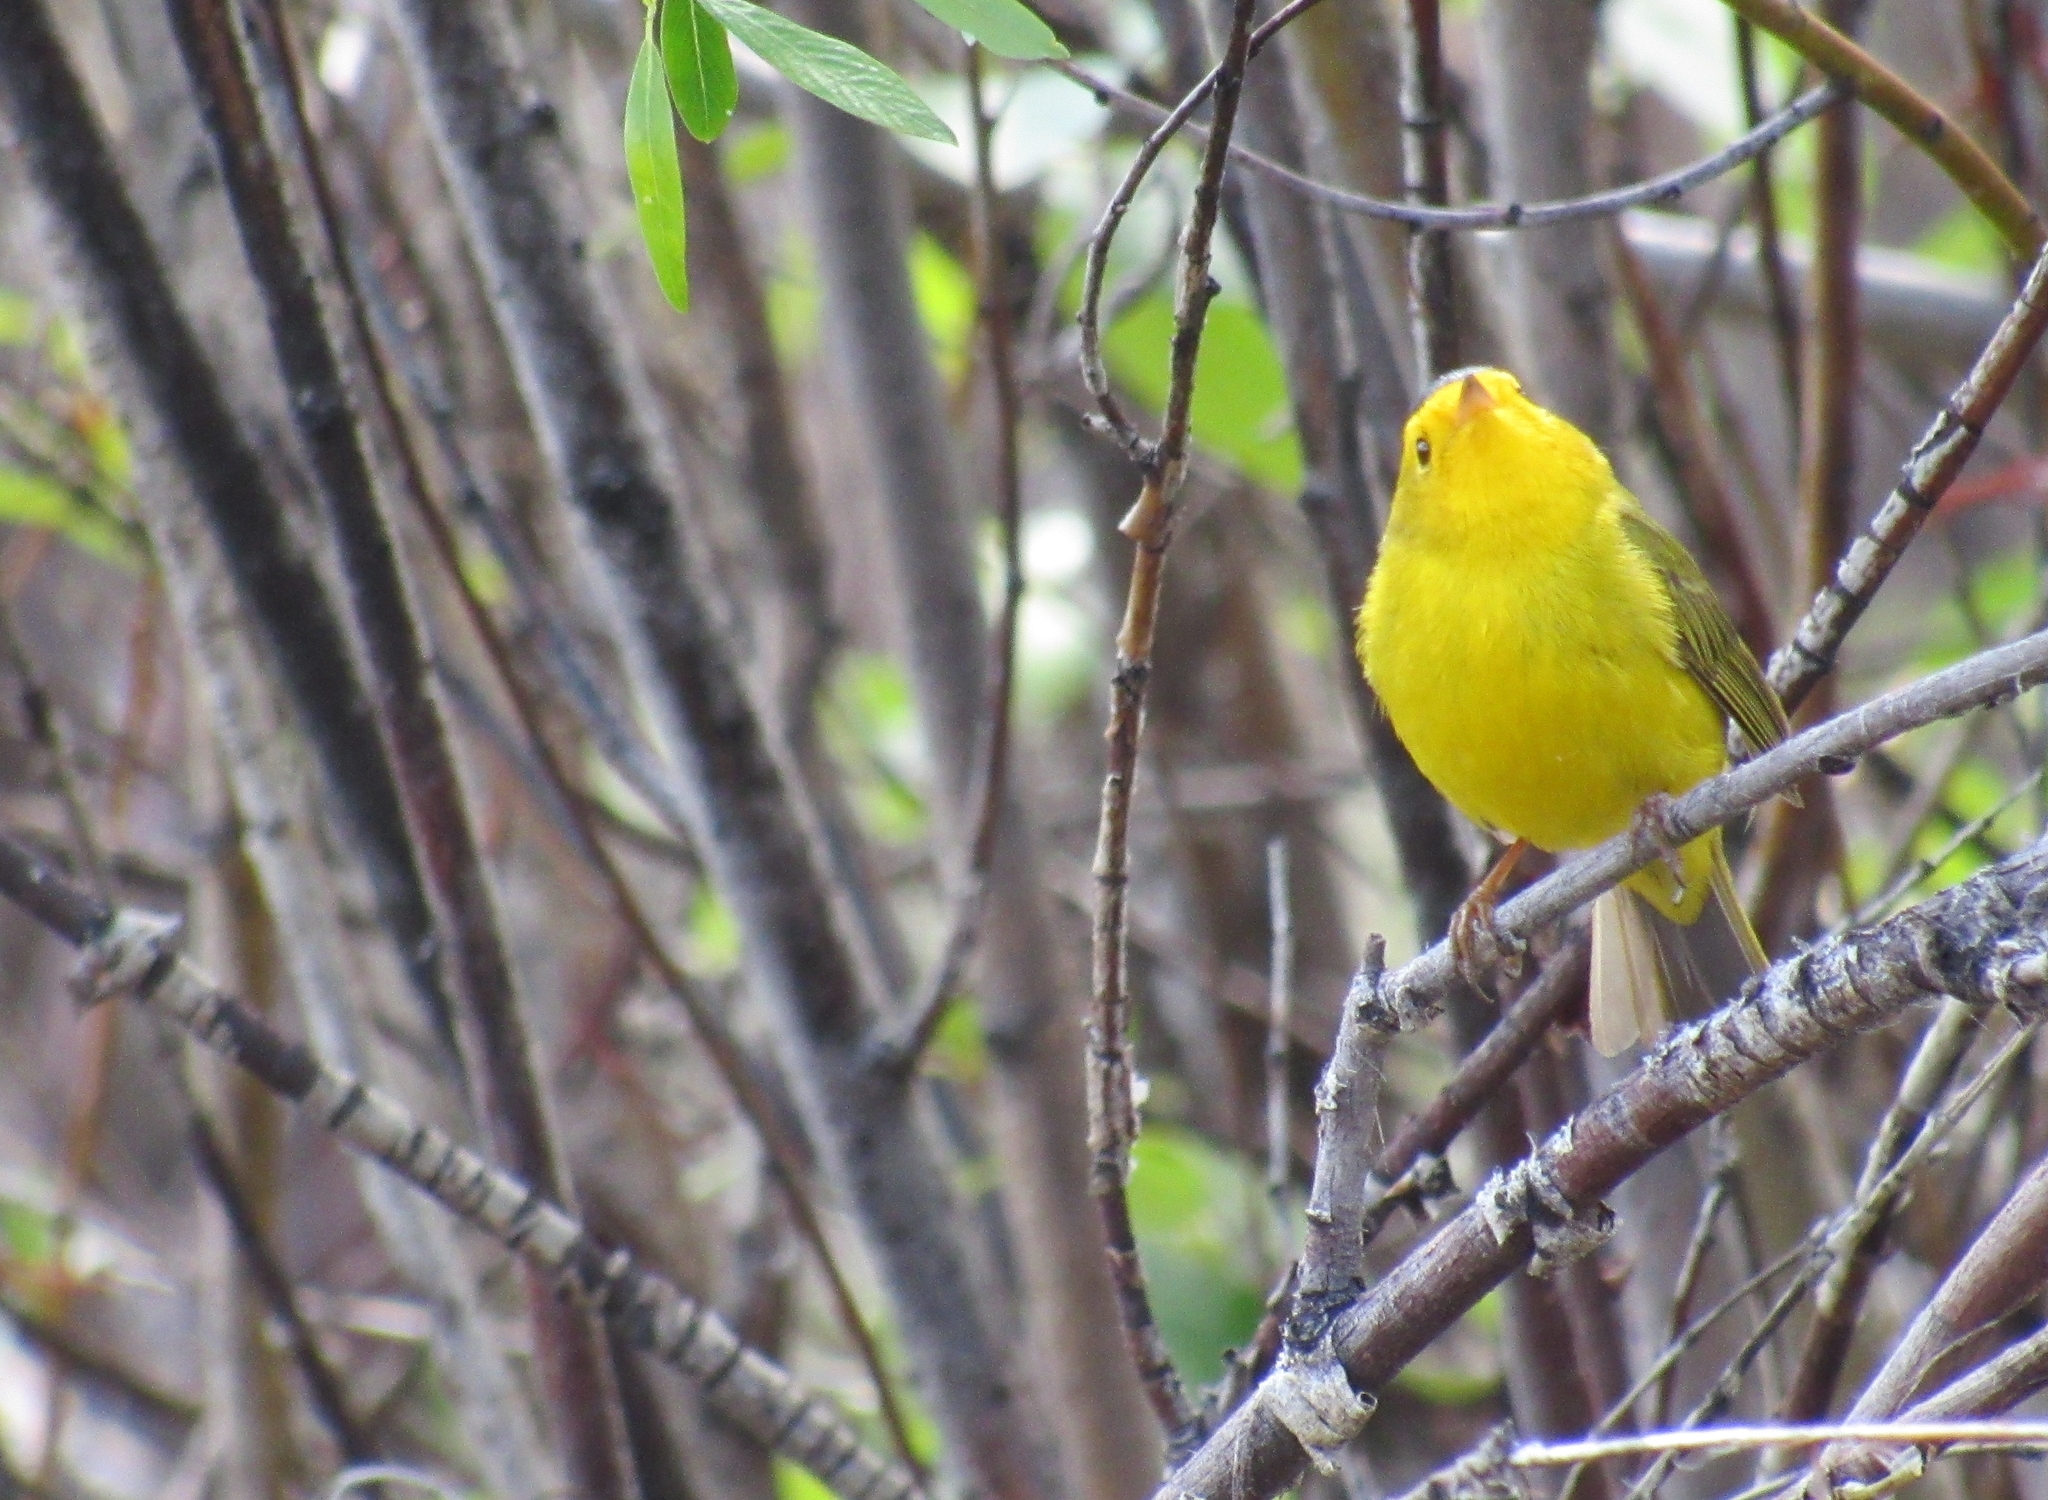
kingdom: Animalia
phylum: Chordata
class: Aves
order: Passeriformes
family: Parulidae
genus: Cardellina
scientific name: Cardellina pusilla
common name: Wilson's warbler
